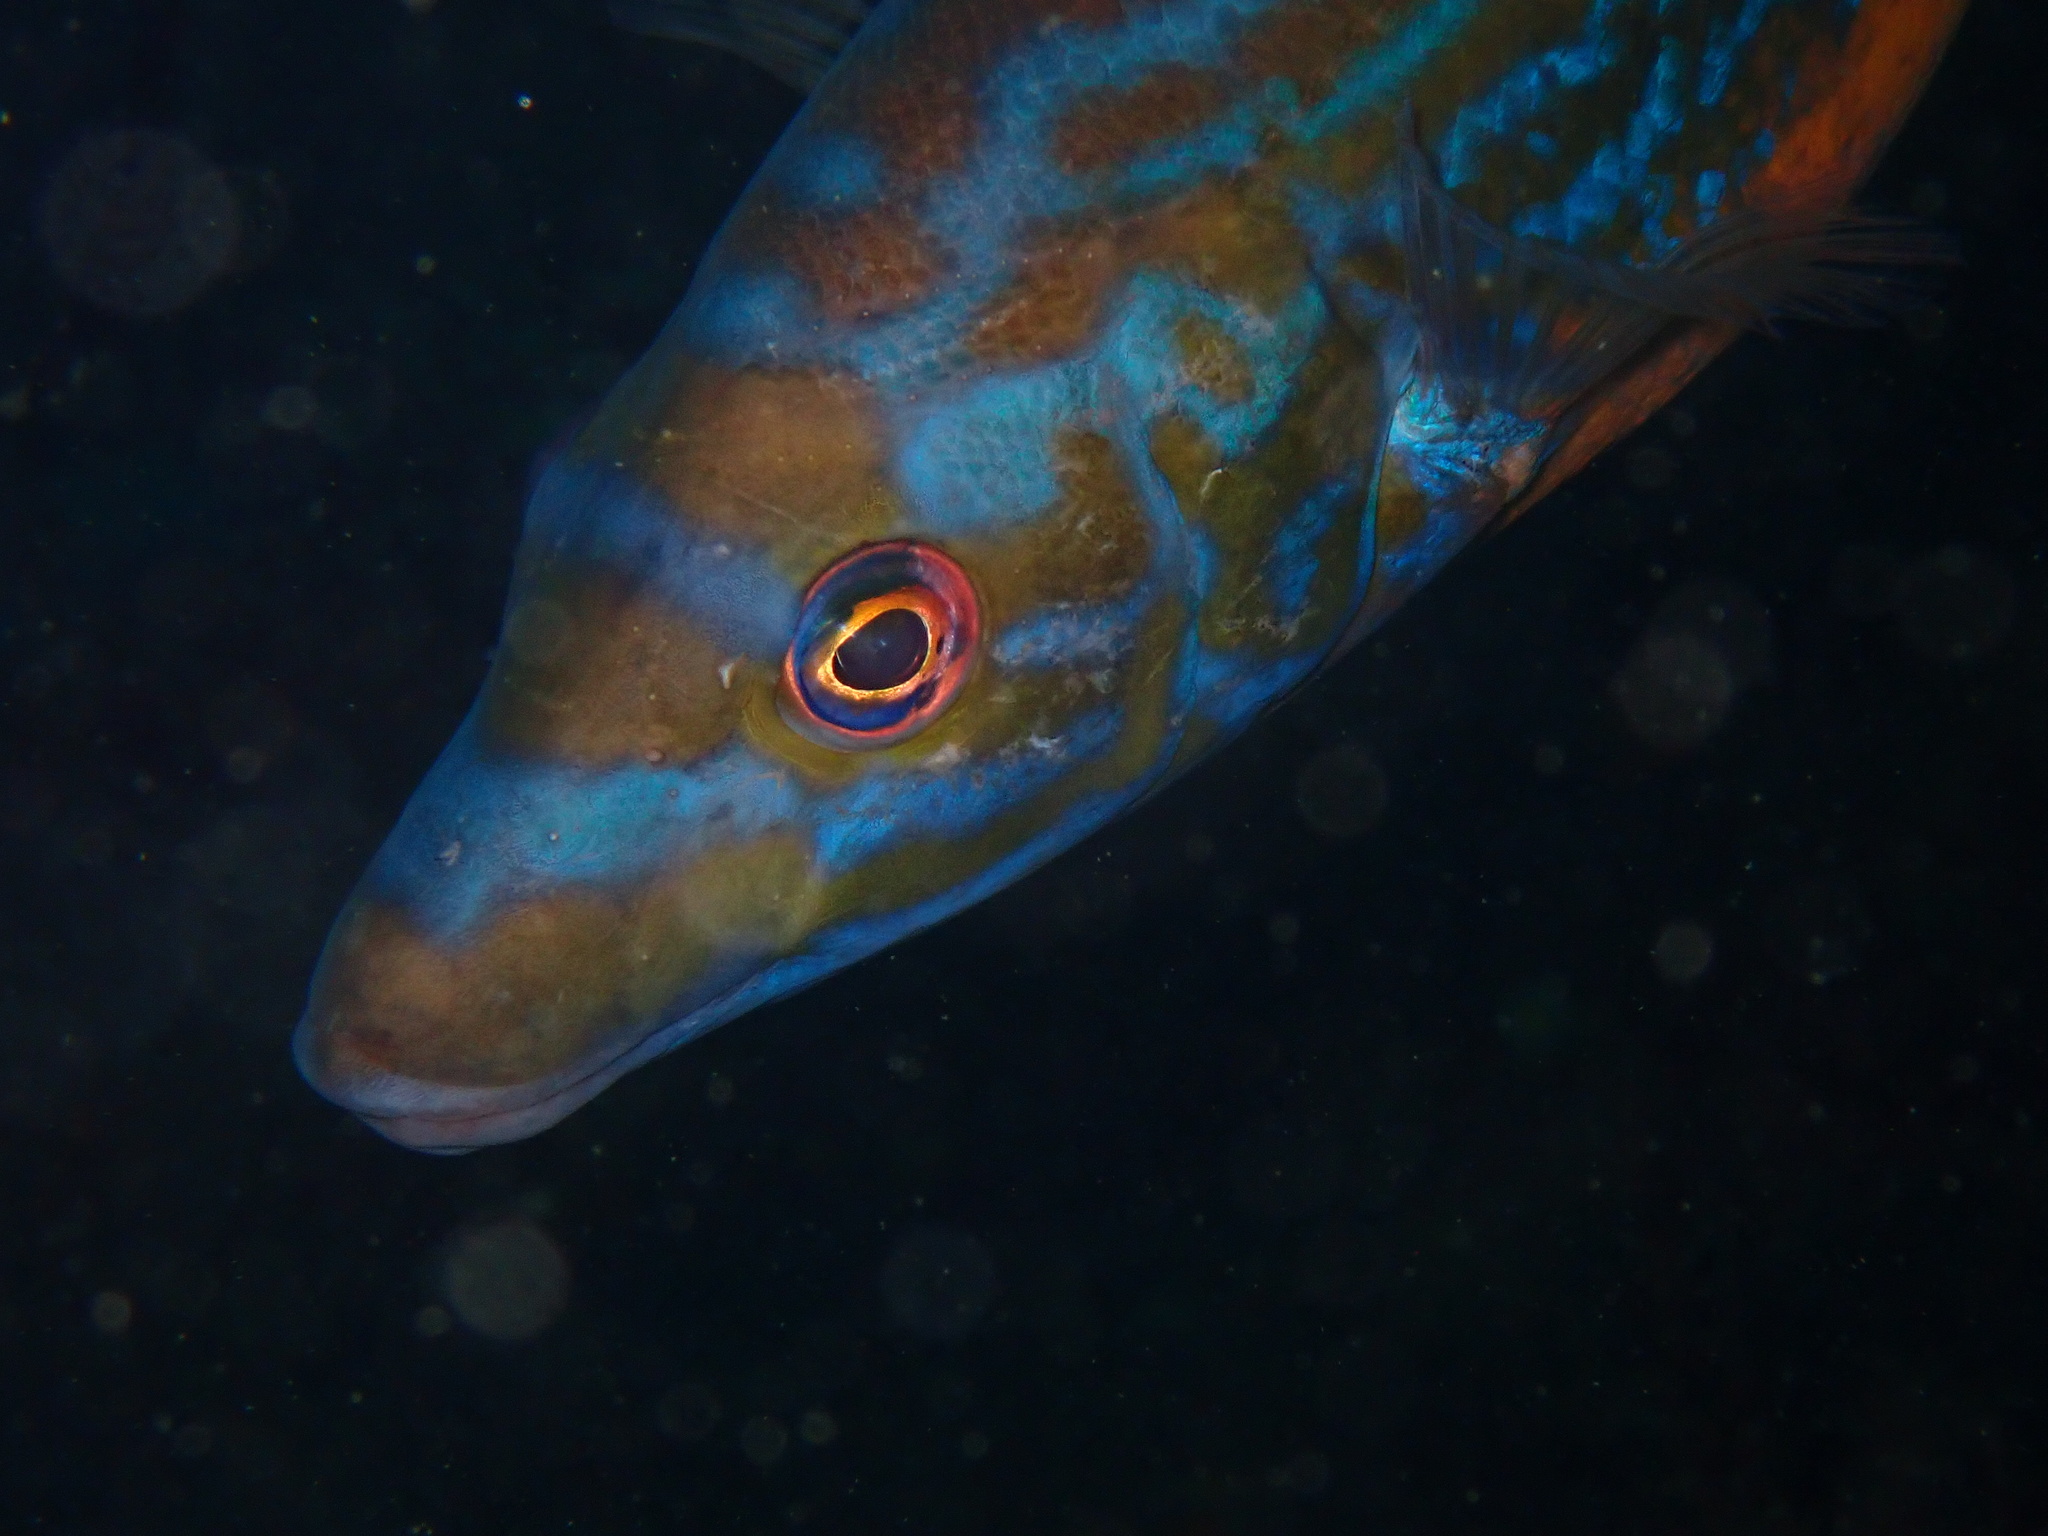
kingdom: Animalia
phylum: Chordata
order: Perciformes
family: Labridae
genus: Labrus
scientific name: Labrus mixtus
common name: Cuckoo wrasse
